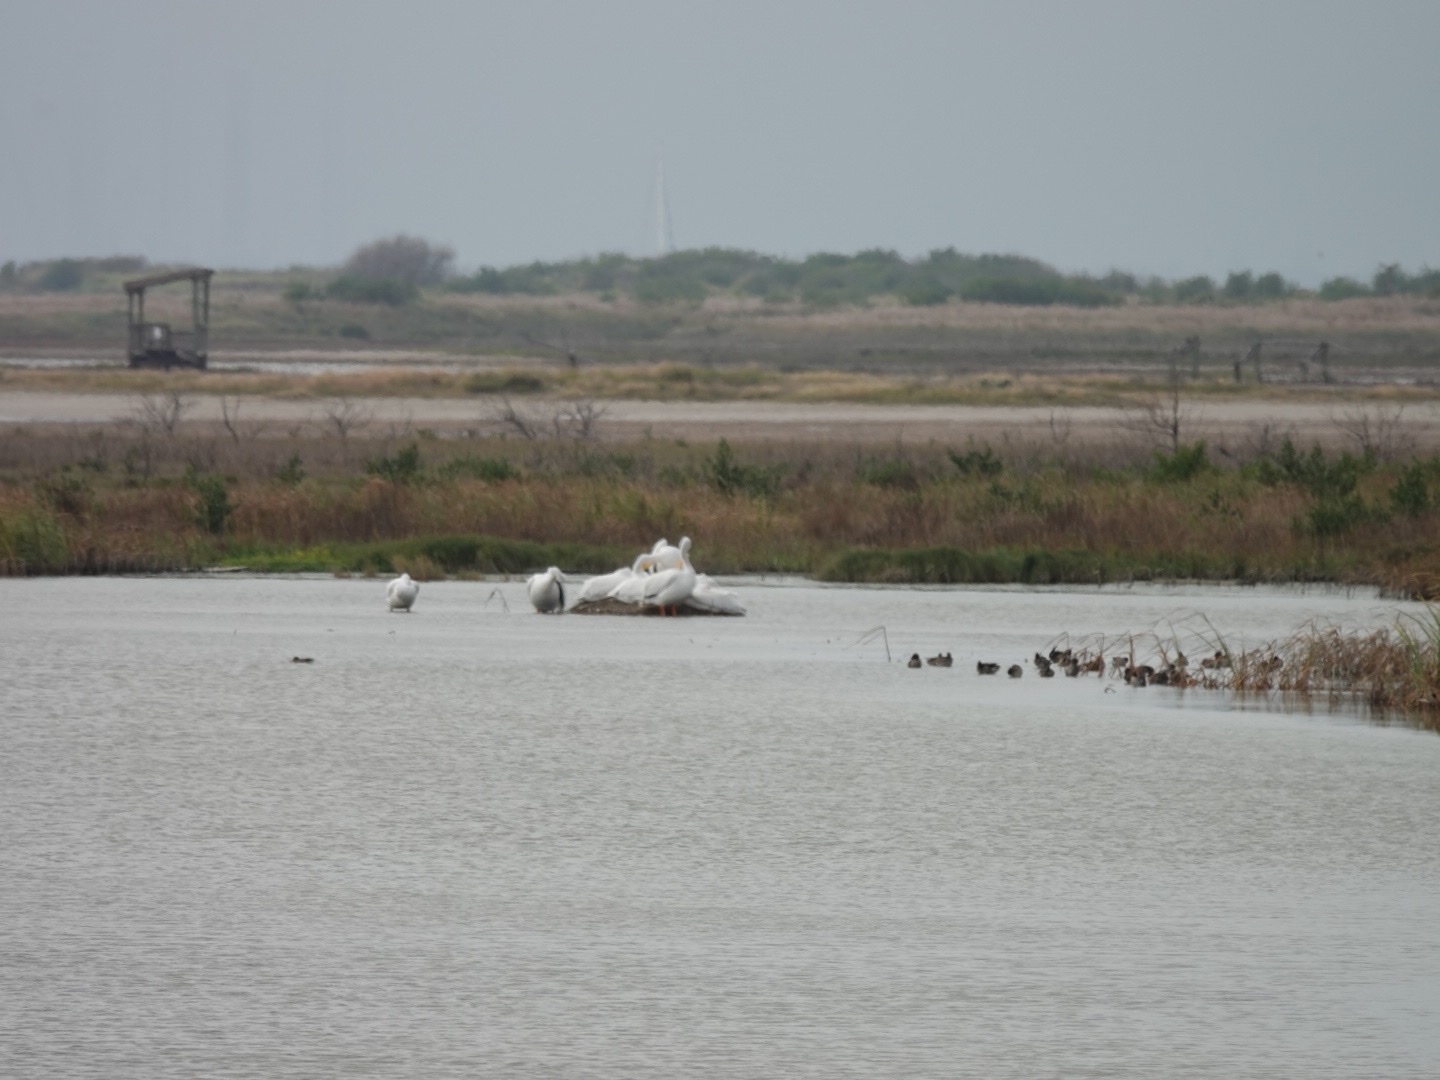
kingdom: Animalia
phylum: Chordata
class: Aves
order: Pelecaniformes
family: Pelecanidae
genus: Pelecanus
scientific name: Pelecanus erythrorhynchos
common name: American white pelican
